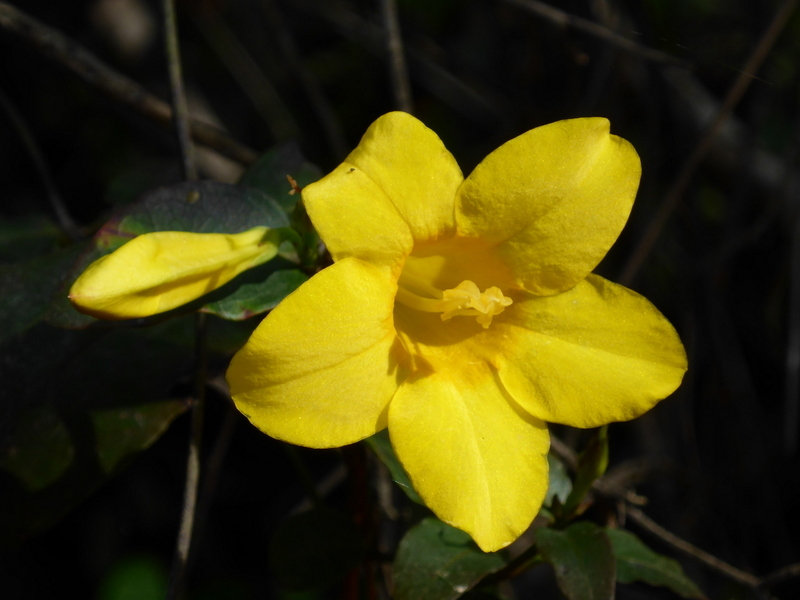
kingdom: Plantae
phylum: Tracheophyta
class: Magnoliopsida
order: Gentianales
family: Gelsemiaceae
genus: Gelsemium
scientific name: Gelsemium rankinii
